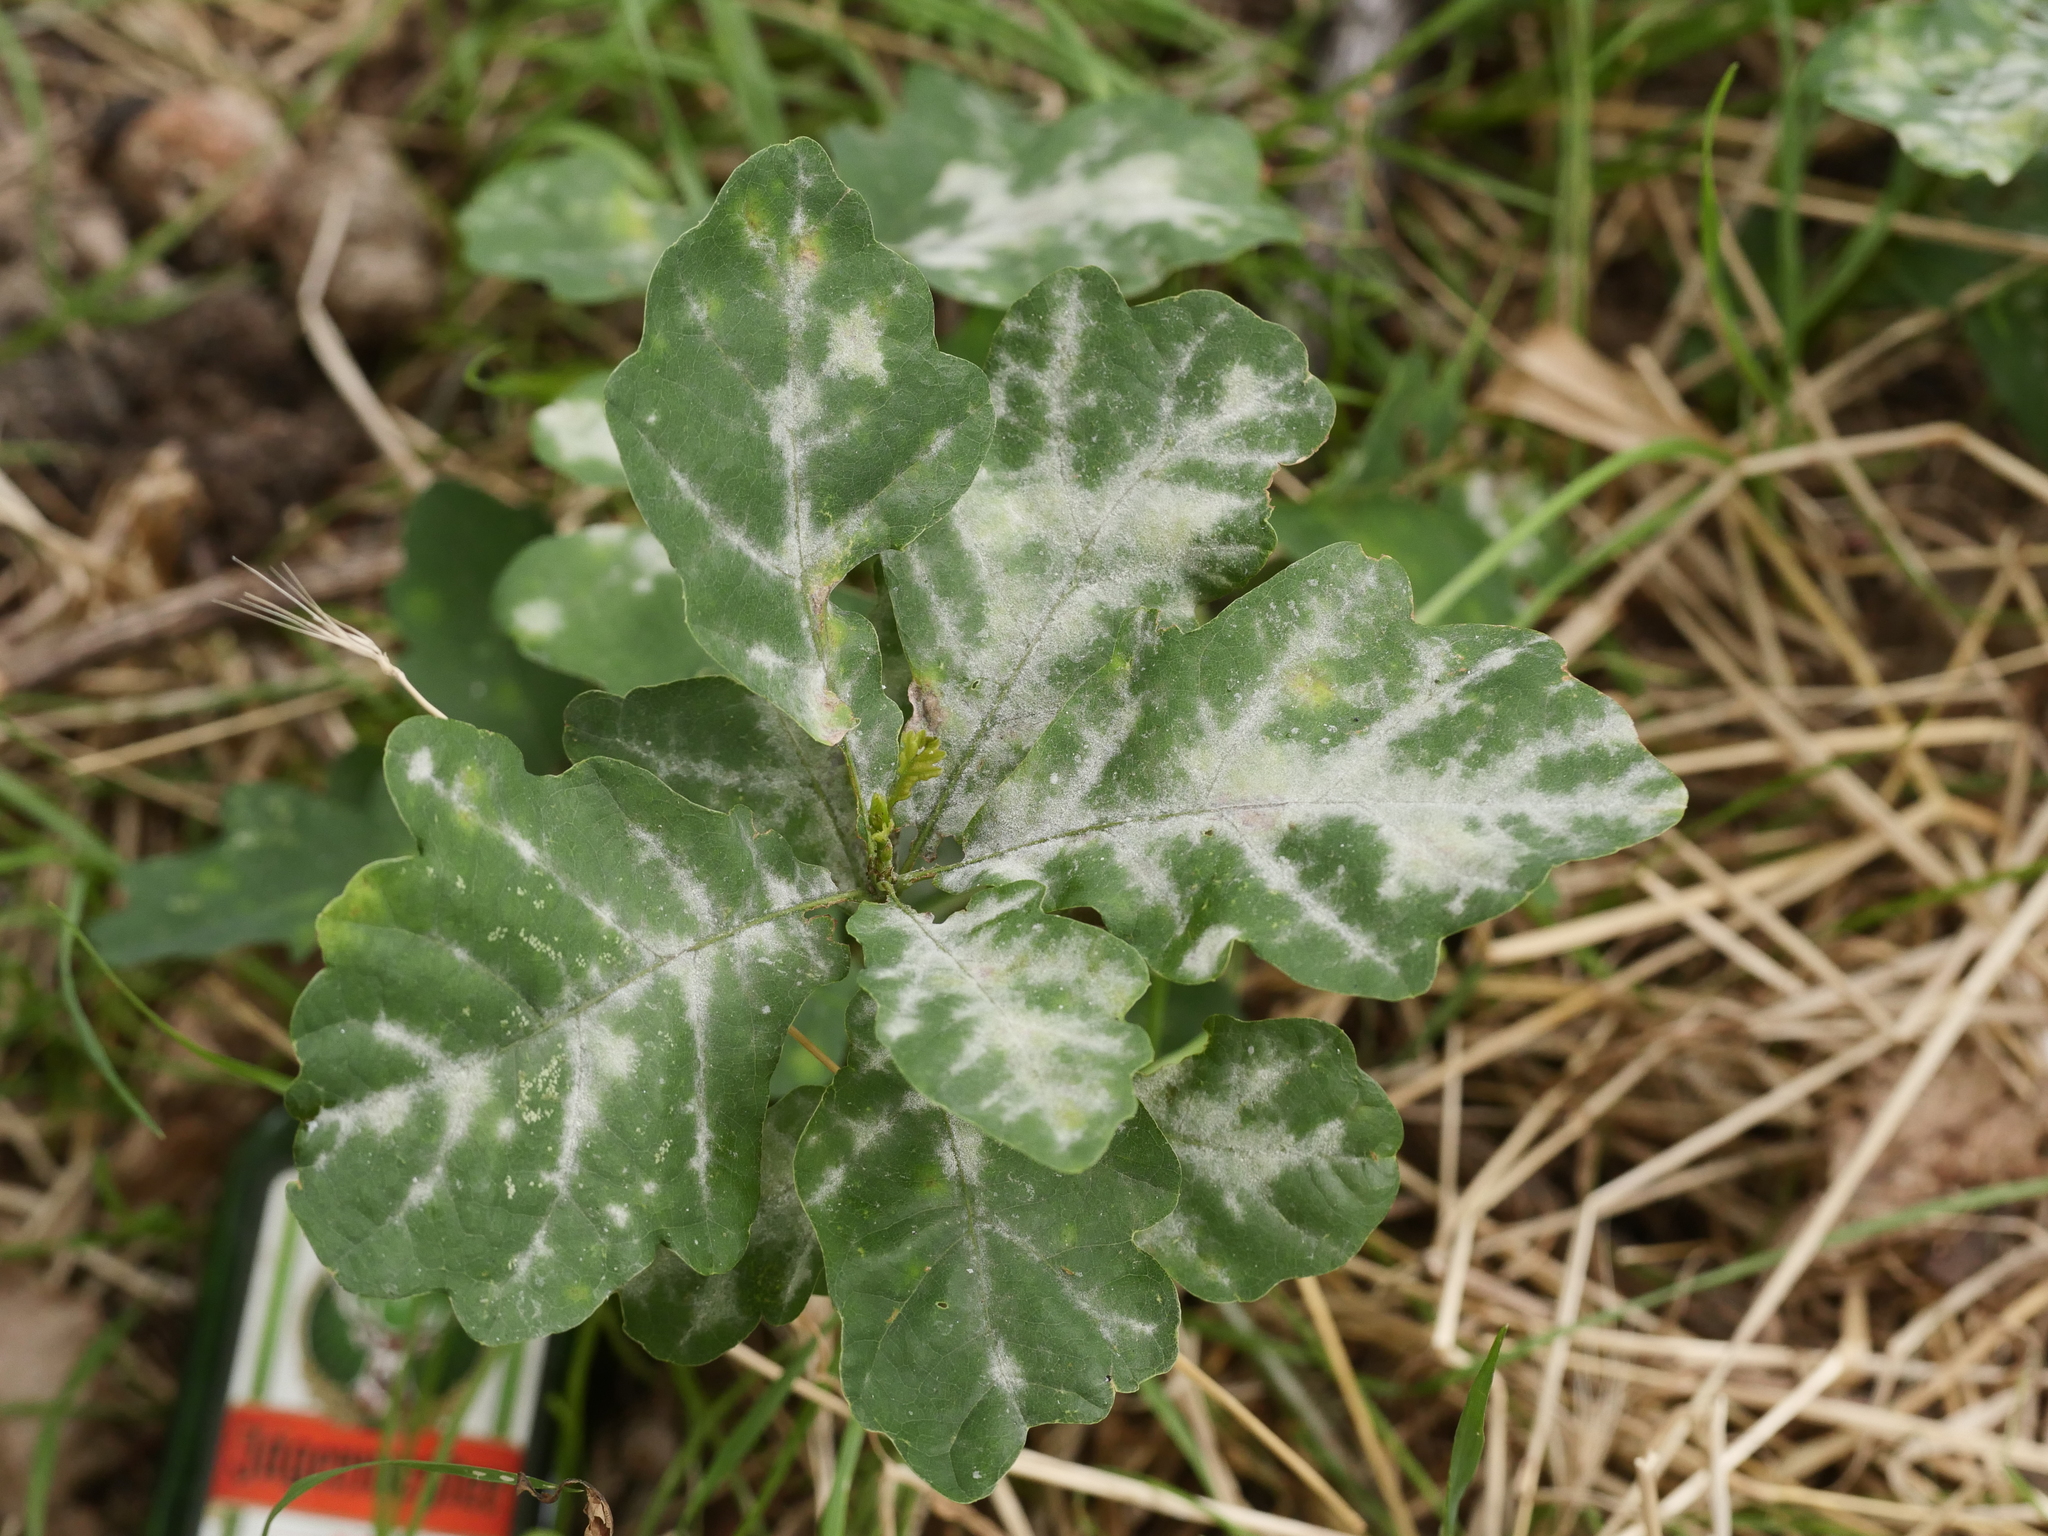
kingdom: Fungi
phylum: Ascomycota
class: Leotiomycetes
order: Helotiales
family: Erysiphaceae
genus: Erysiphe
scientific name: Erysiphe
